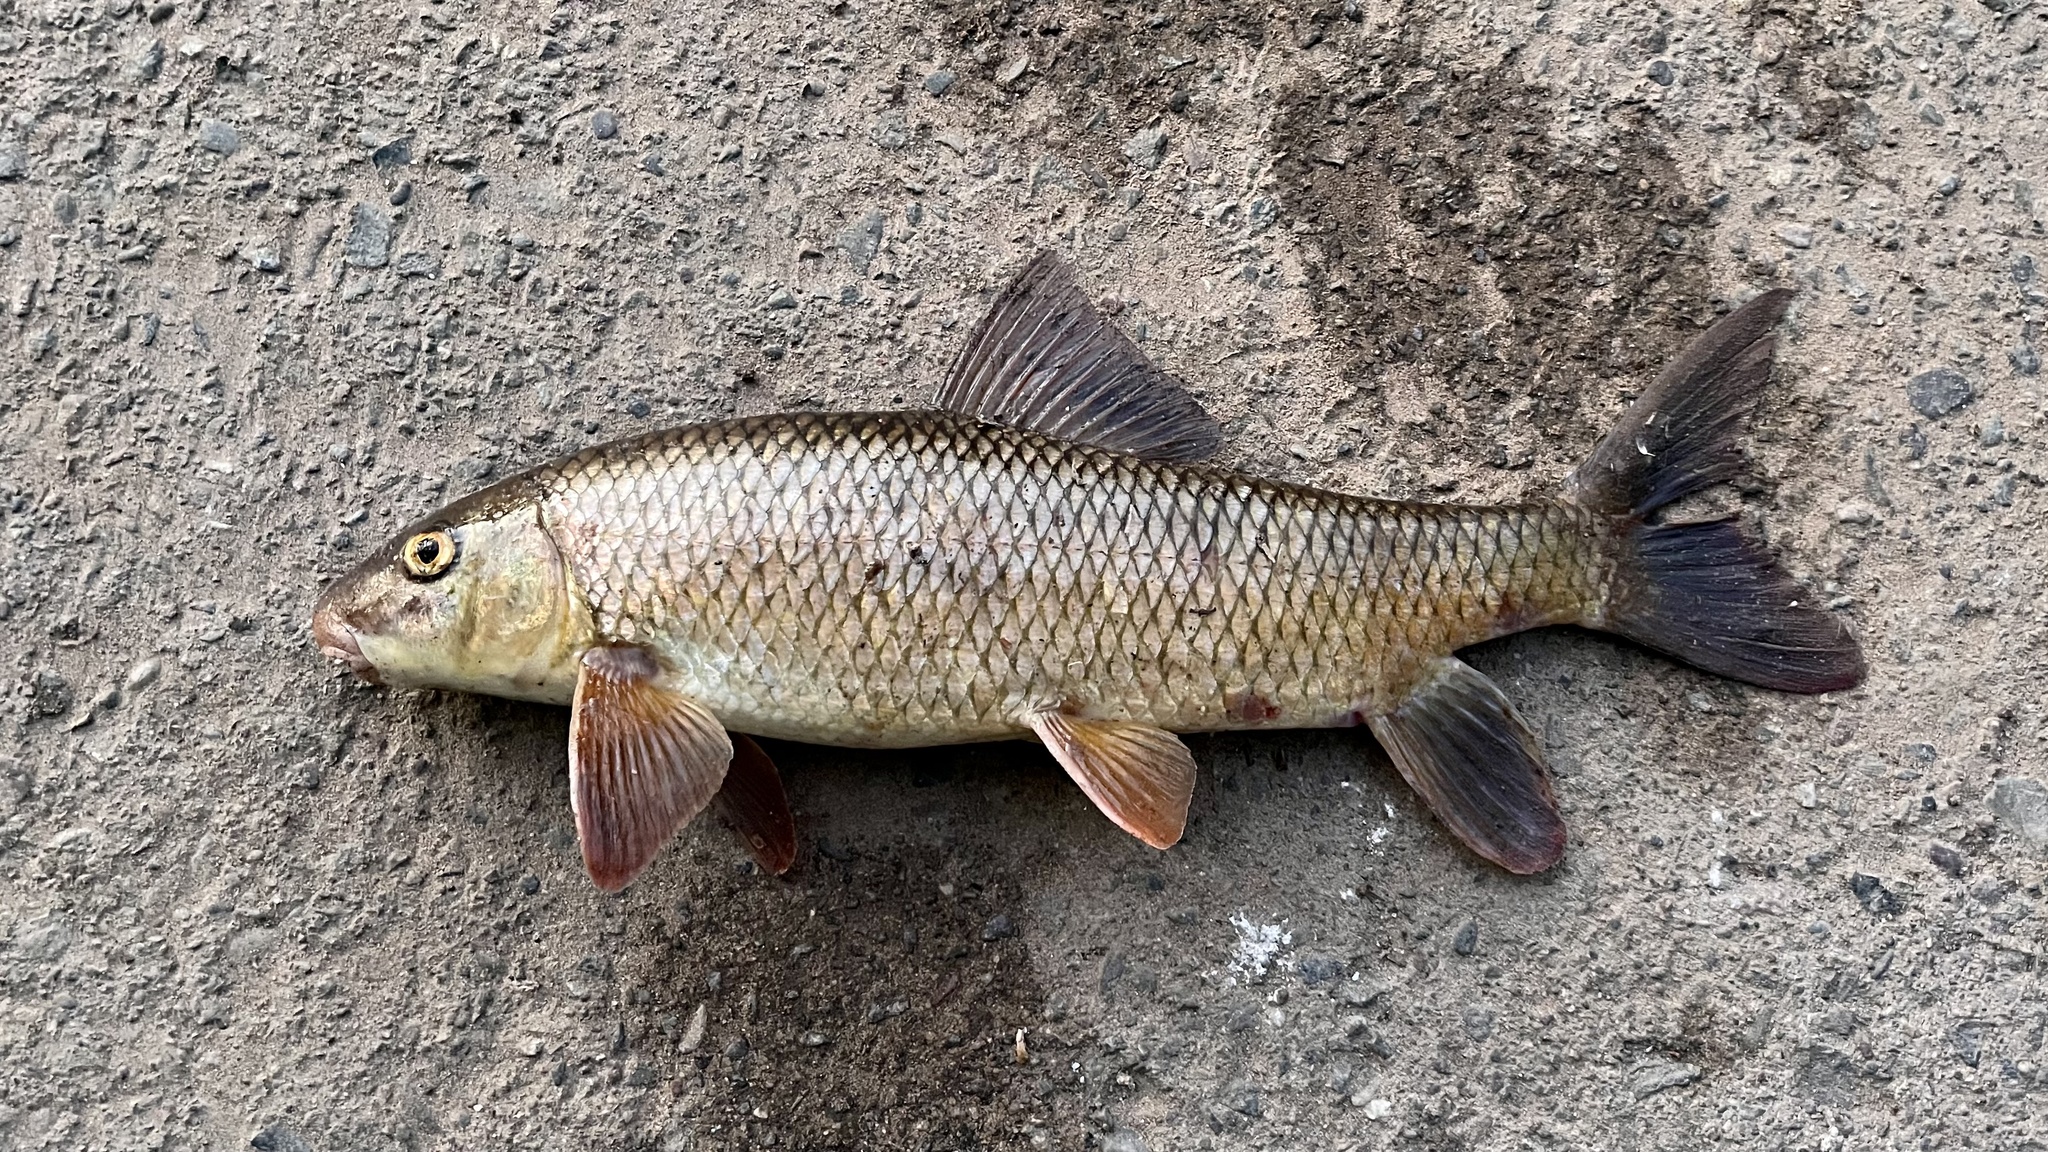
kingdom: Animalia
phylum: Chordata
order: Cypriniformes
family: Catostomidae
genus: Moxostoma
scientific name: Moxostoma macrolepidotum
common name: Shorthead redhorse
